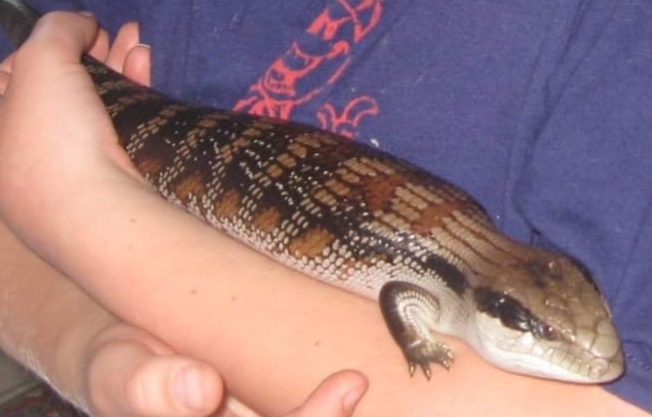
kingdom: Animalia
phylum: Chordata
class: Squamata
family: Scincidae
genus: Tiliqua
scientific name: Tiliqua scincoides
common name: Common bluetongue
